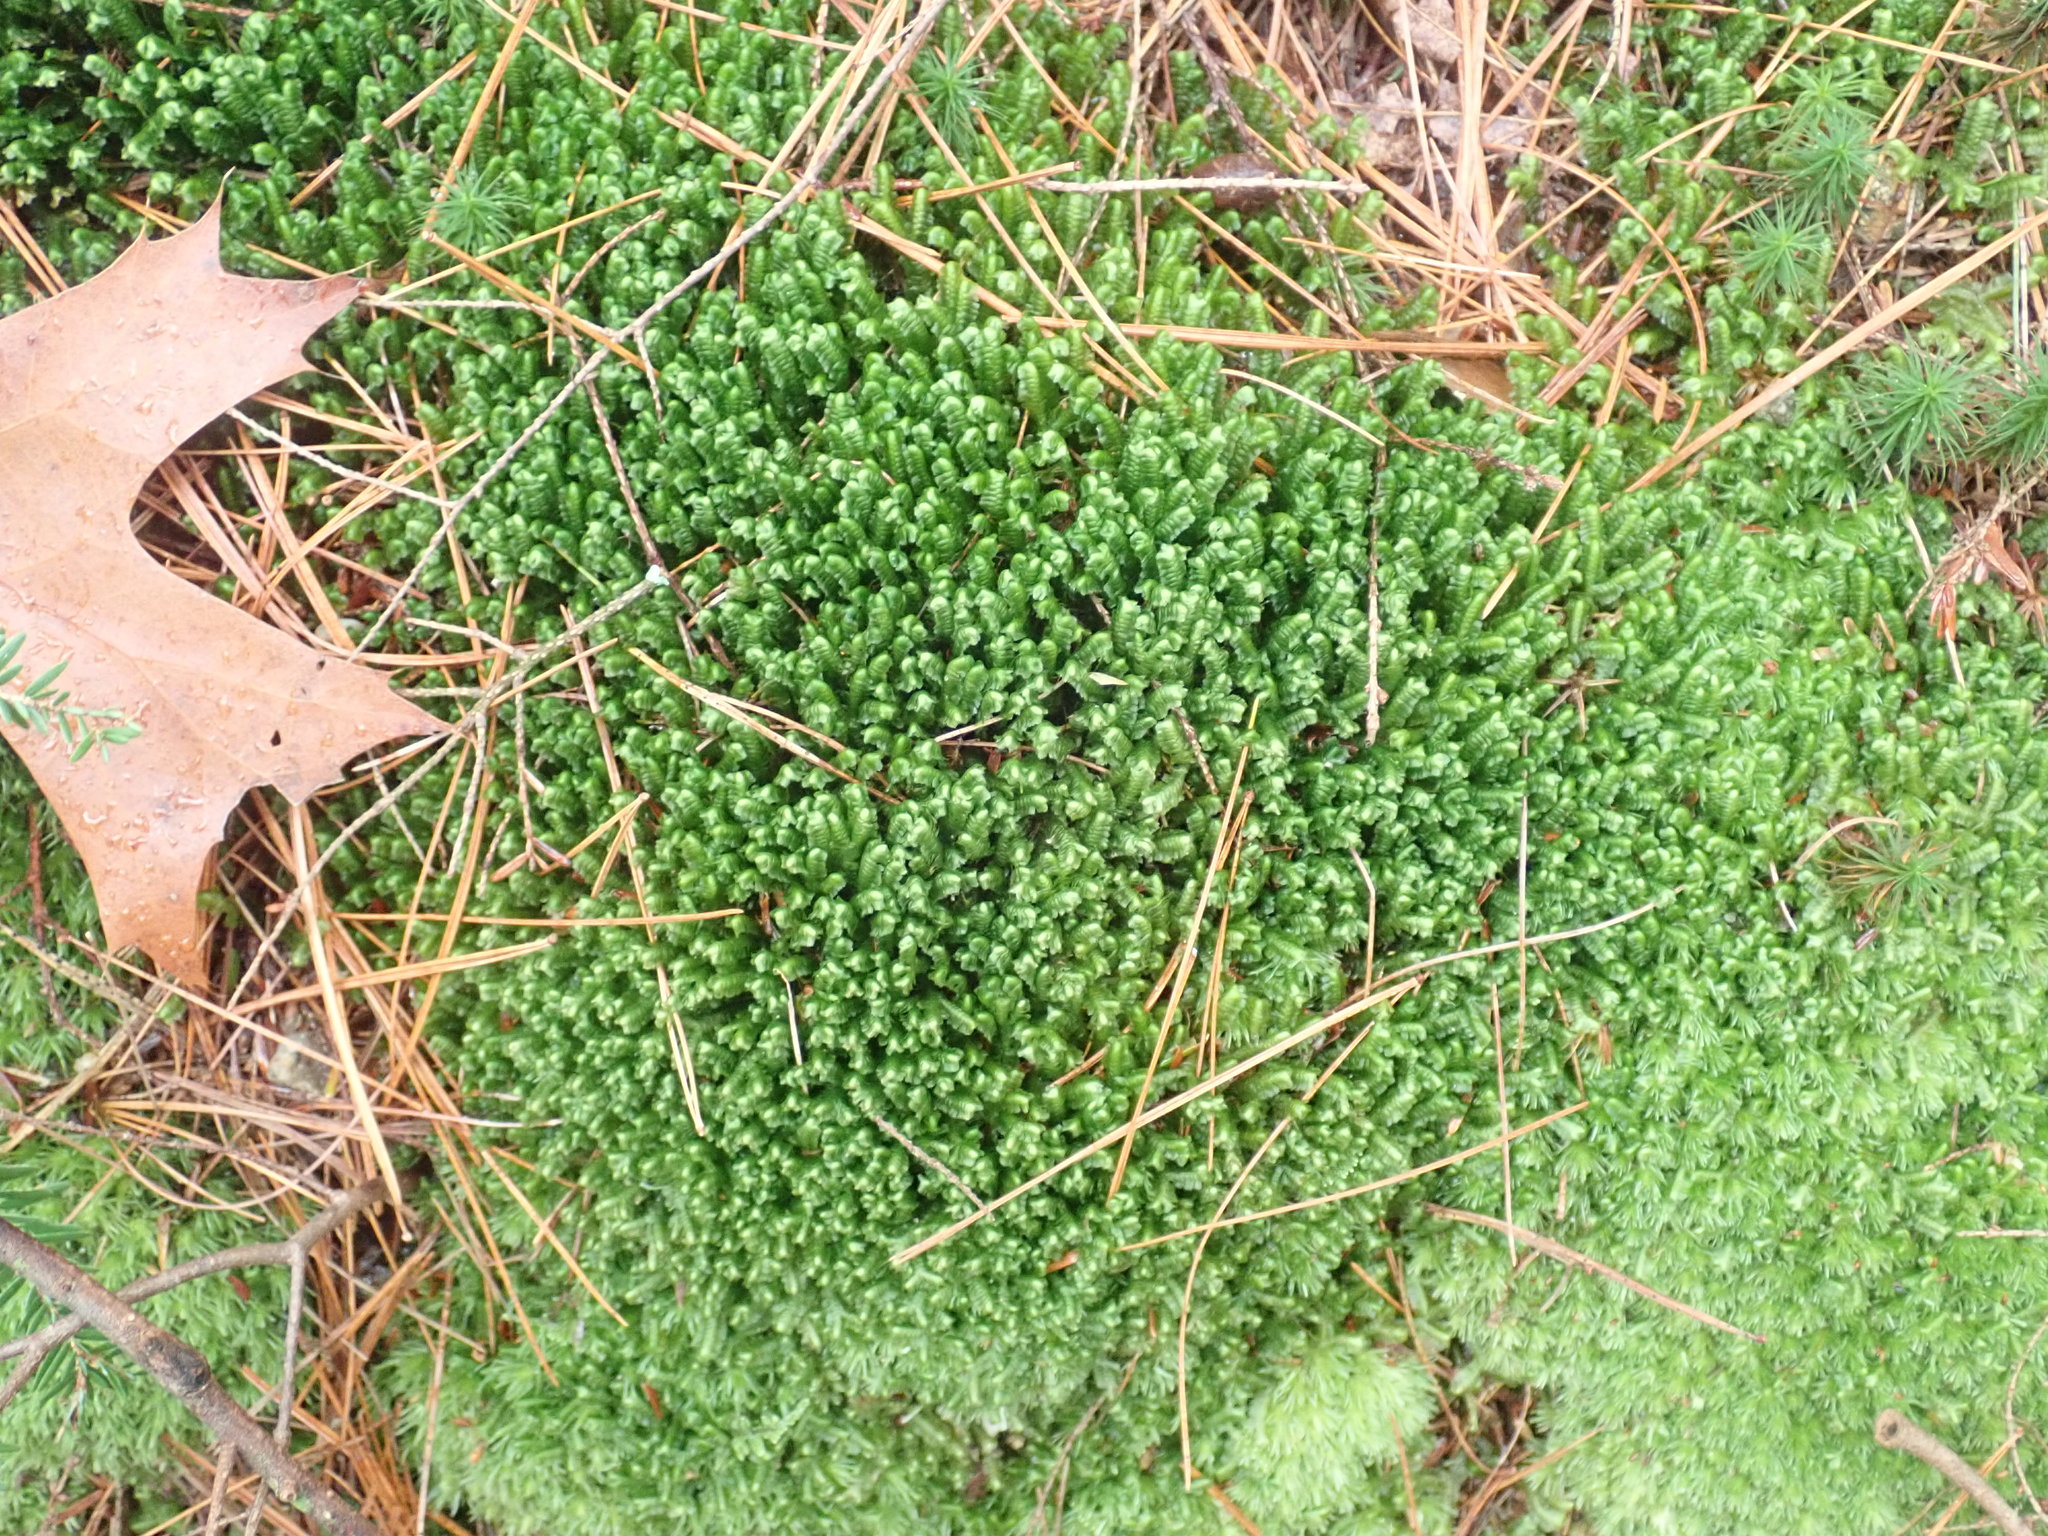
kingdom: Plantae
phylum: Marchantiophyta
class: Jungermanniopsida
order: Jungermanniales
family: Lepidoziaceae
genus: Bazzania
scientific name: Bazzania trilobata
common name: Three-lobed whipwort
